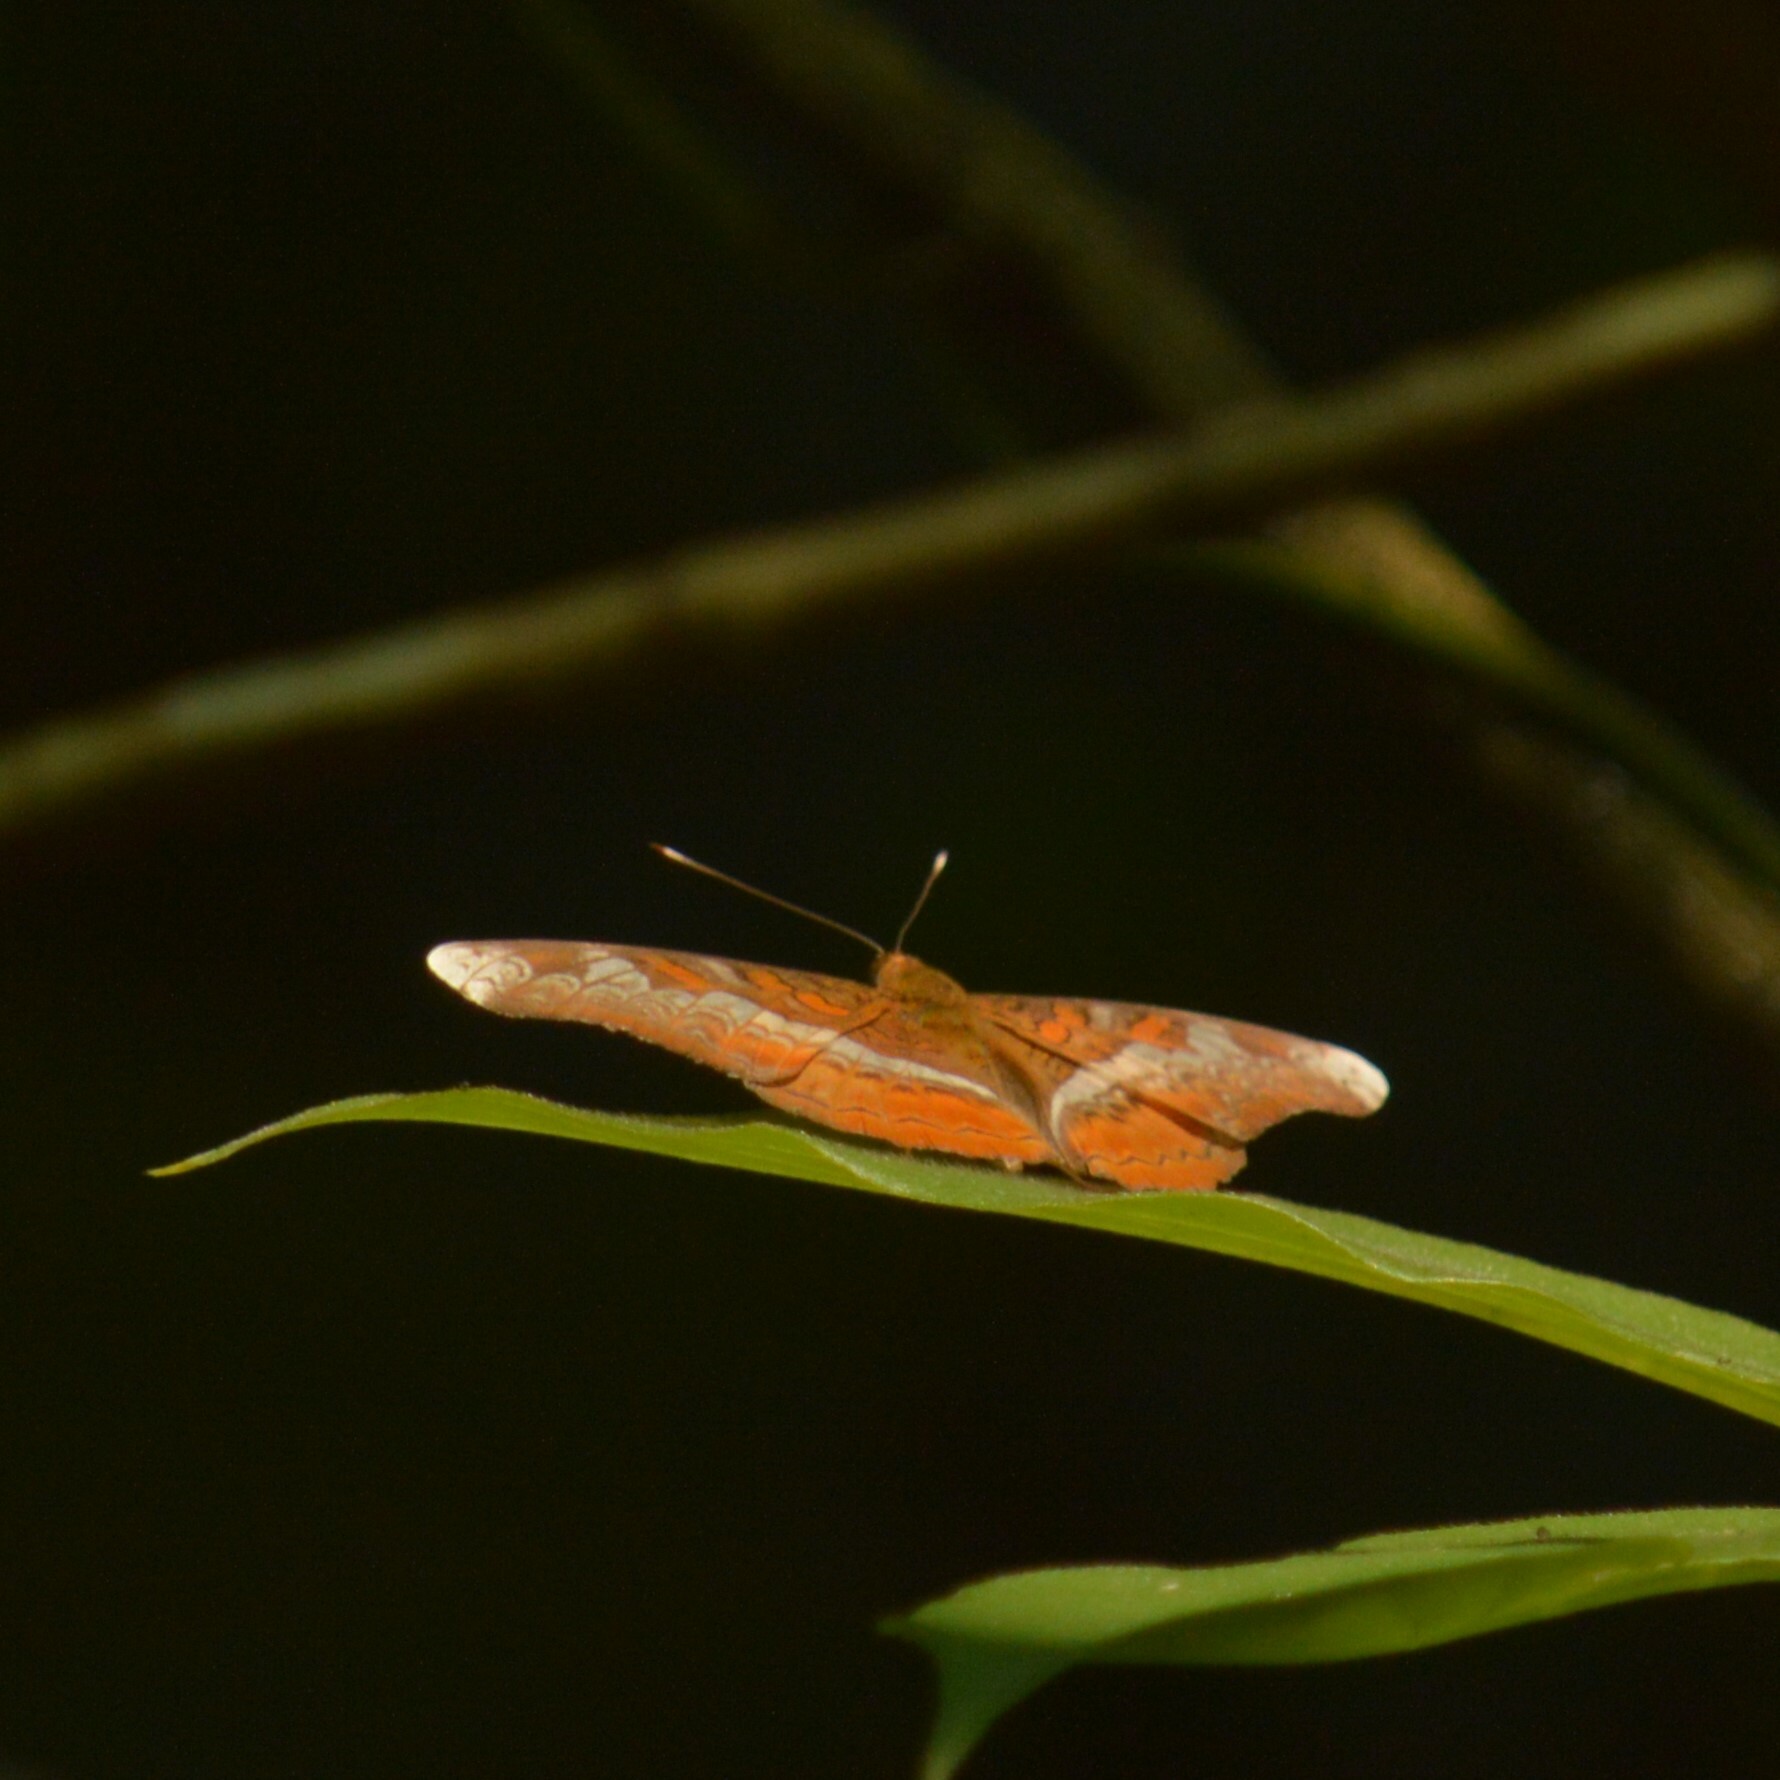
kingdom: Animalia
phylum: Arthropoda
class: Insecta
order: Lepidoptera
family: Nymphalidae
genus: Lebadea
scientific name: Lebadea martha
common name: Knight
